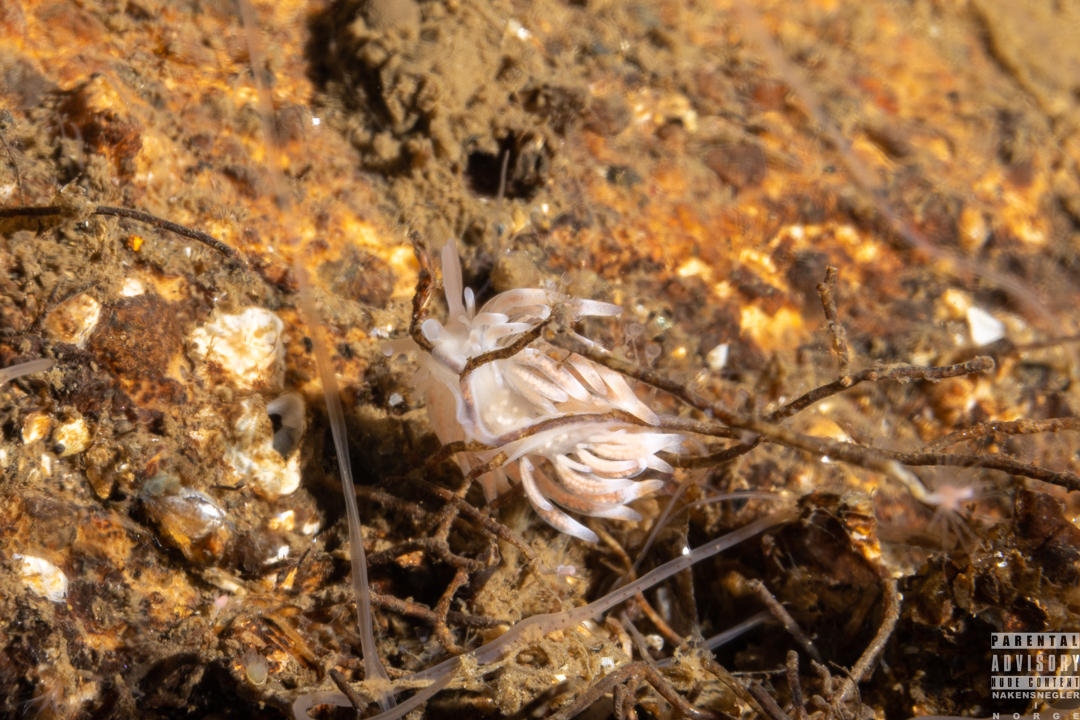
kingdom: Animalia
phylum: Mollusca
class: Gastropoda
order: Nudibranchia
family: Trinchesiidae
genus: Catriona
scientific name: Catriona aurantia
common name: Corange-tip cuthona
